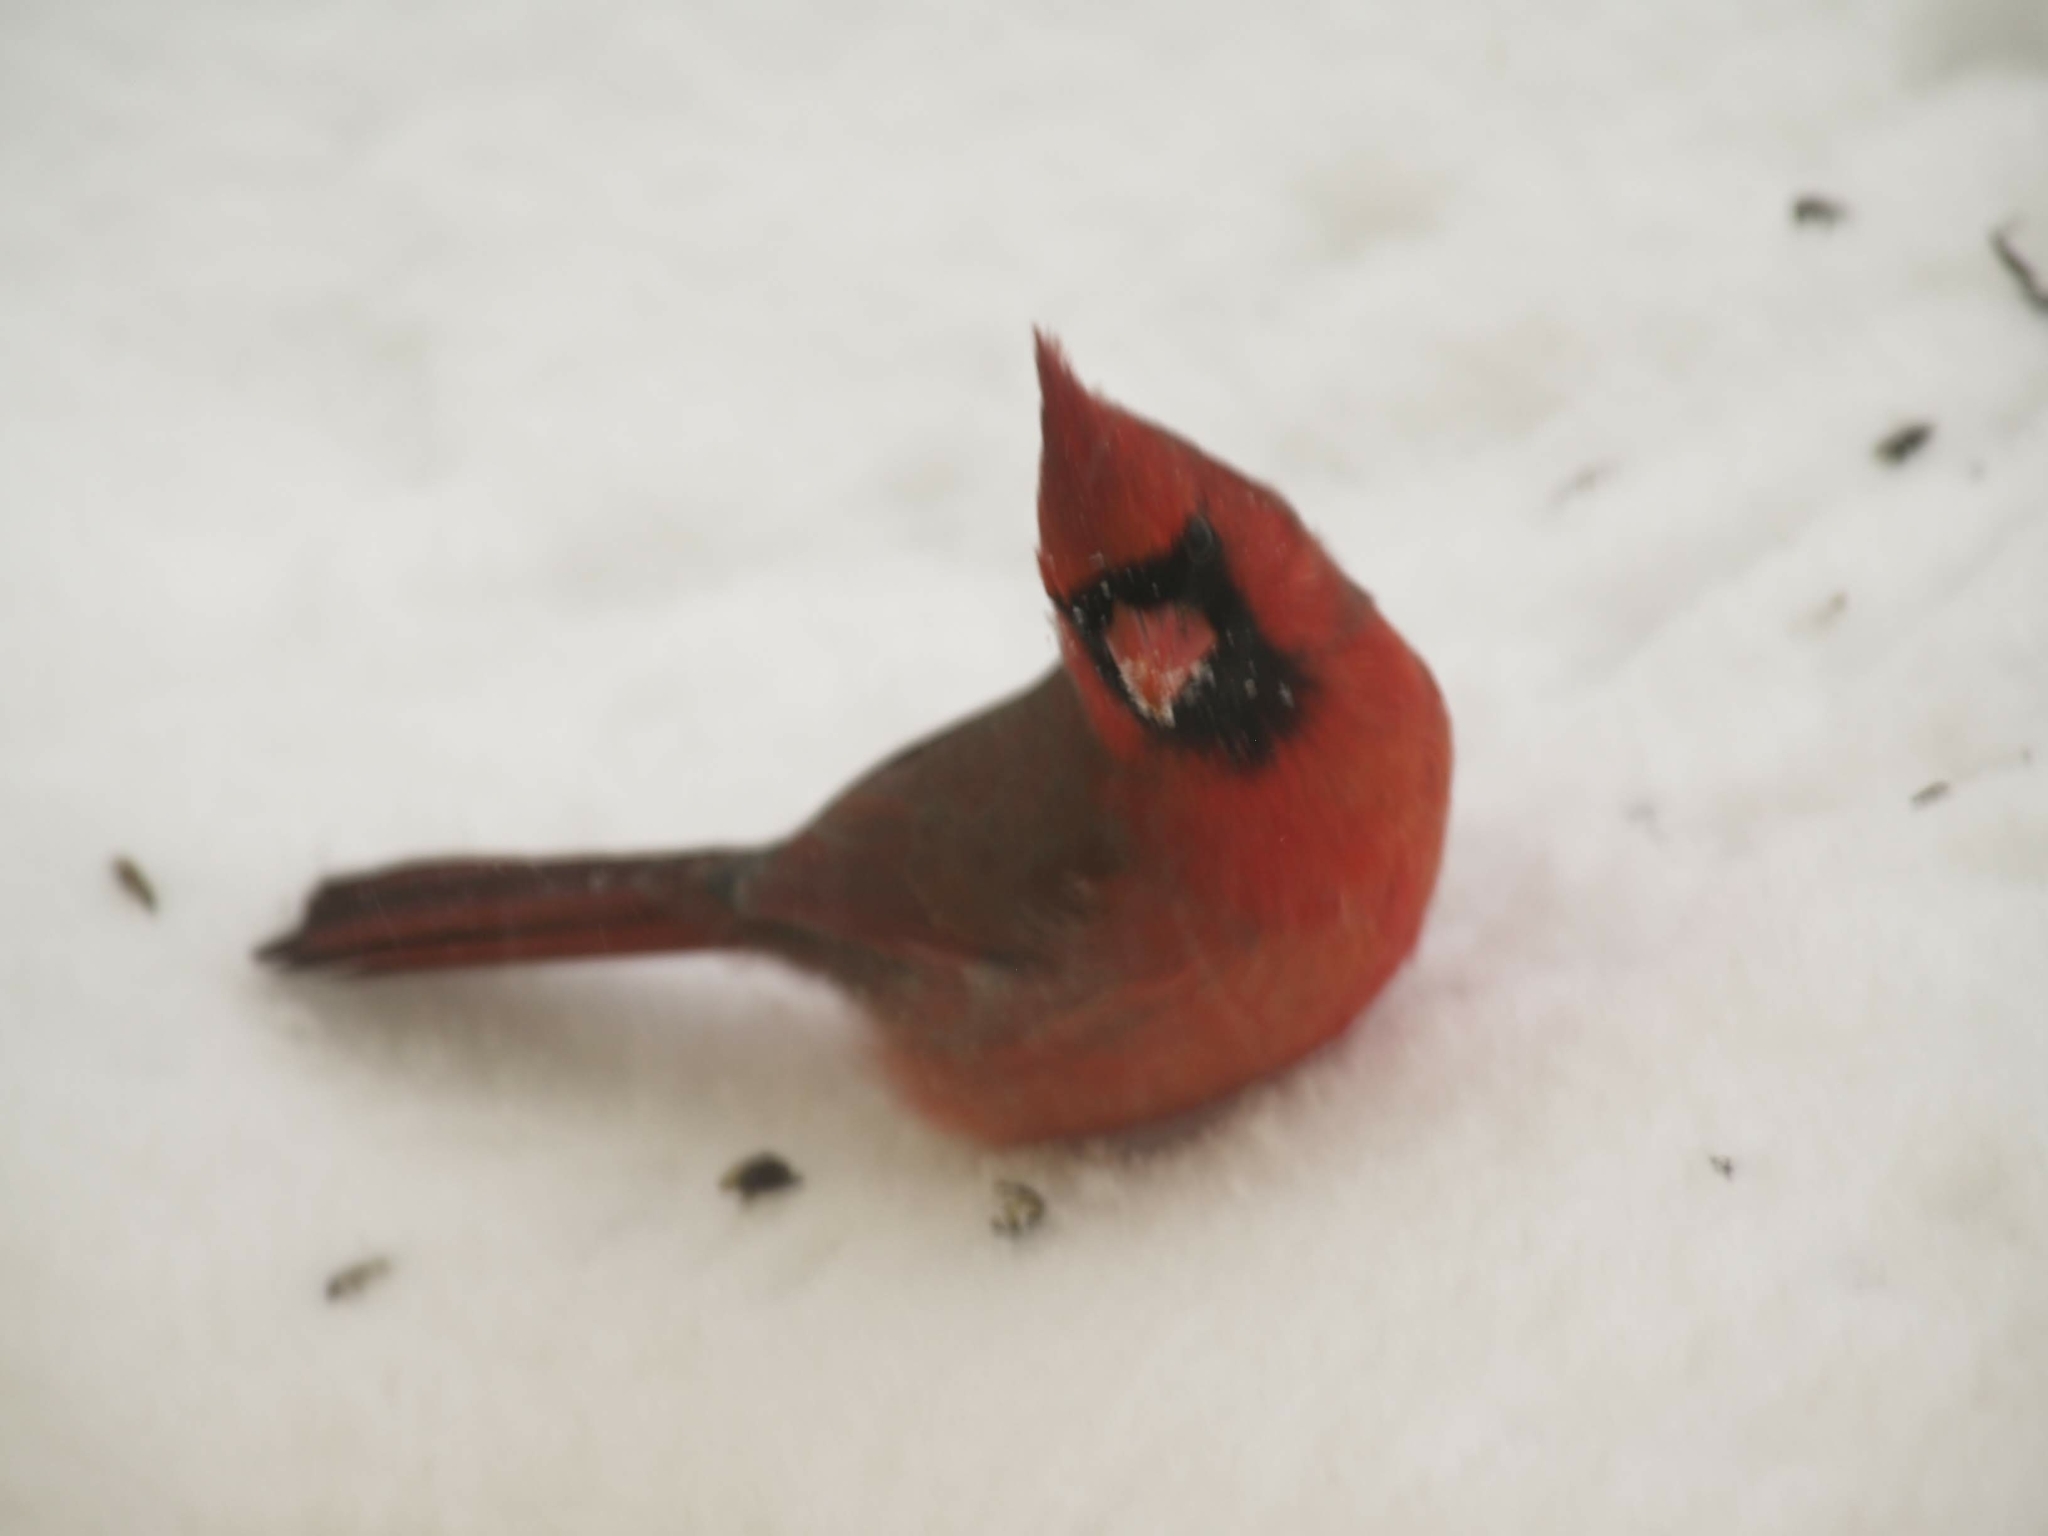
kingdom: Animalia
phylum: Chordata
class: Aves
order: Passeriformes
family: Cardinalidae
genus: Cardinalis
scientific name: Cardinalis cardinalis
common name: Northern cardinal
